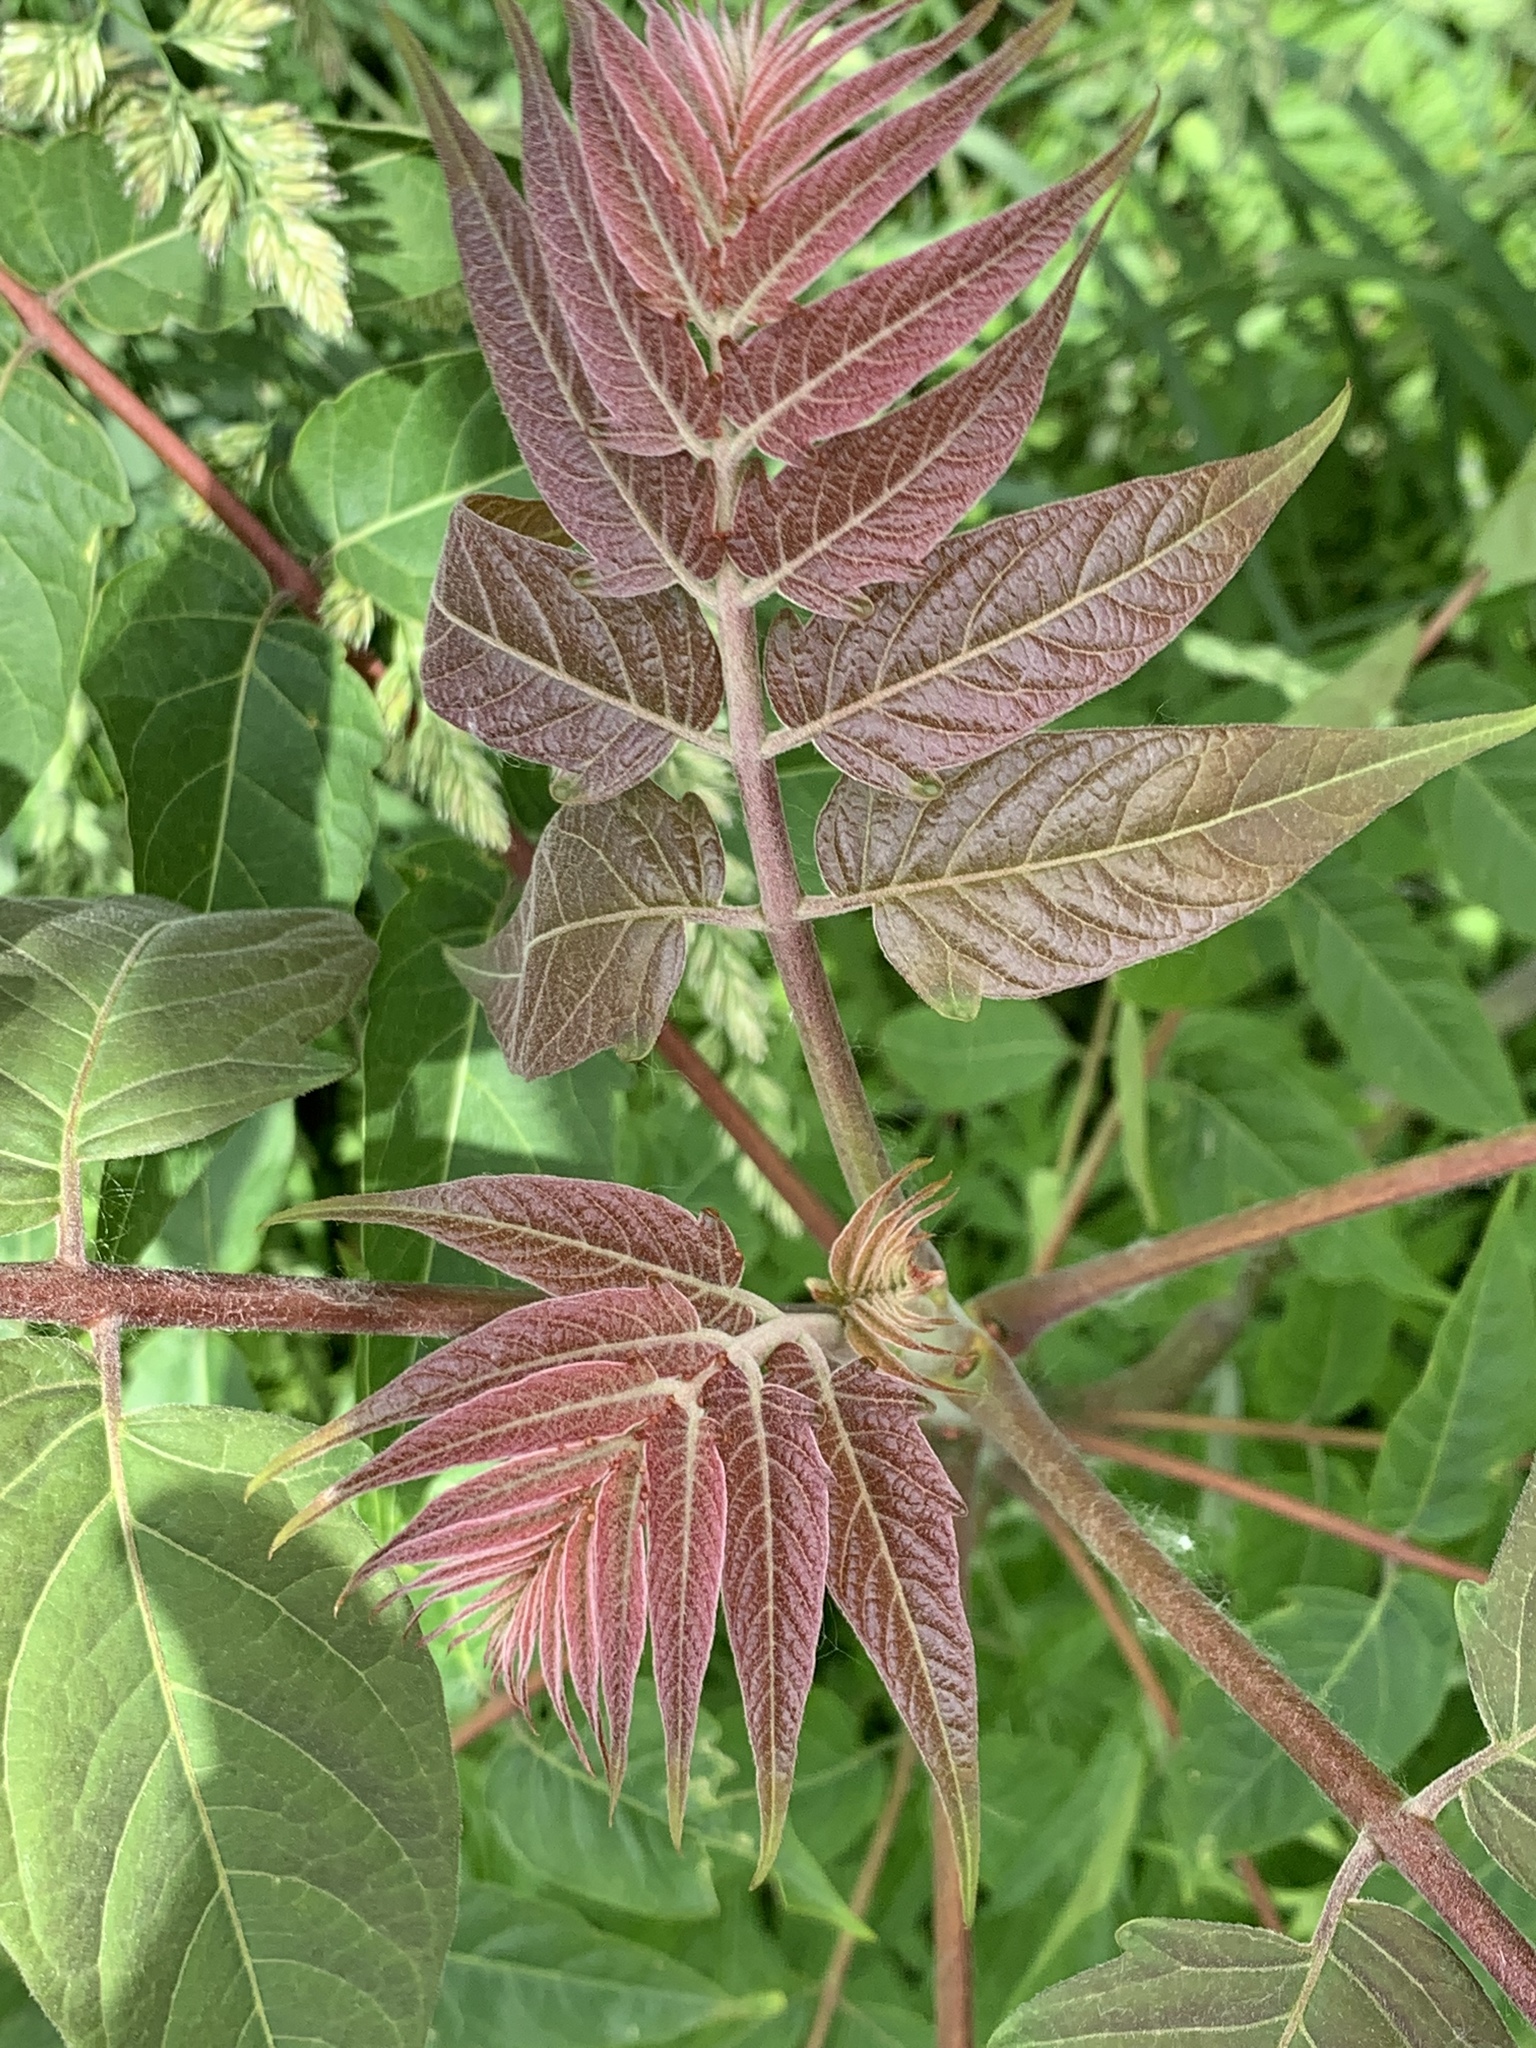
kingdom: Plantae
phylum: Tracheophyta
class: Magnoliopsida
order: Sapindales
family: Simaroubaceae
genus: Ailanthus
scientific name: Ailanthus altissima
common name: Tree-of-heaven
